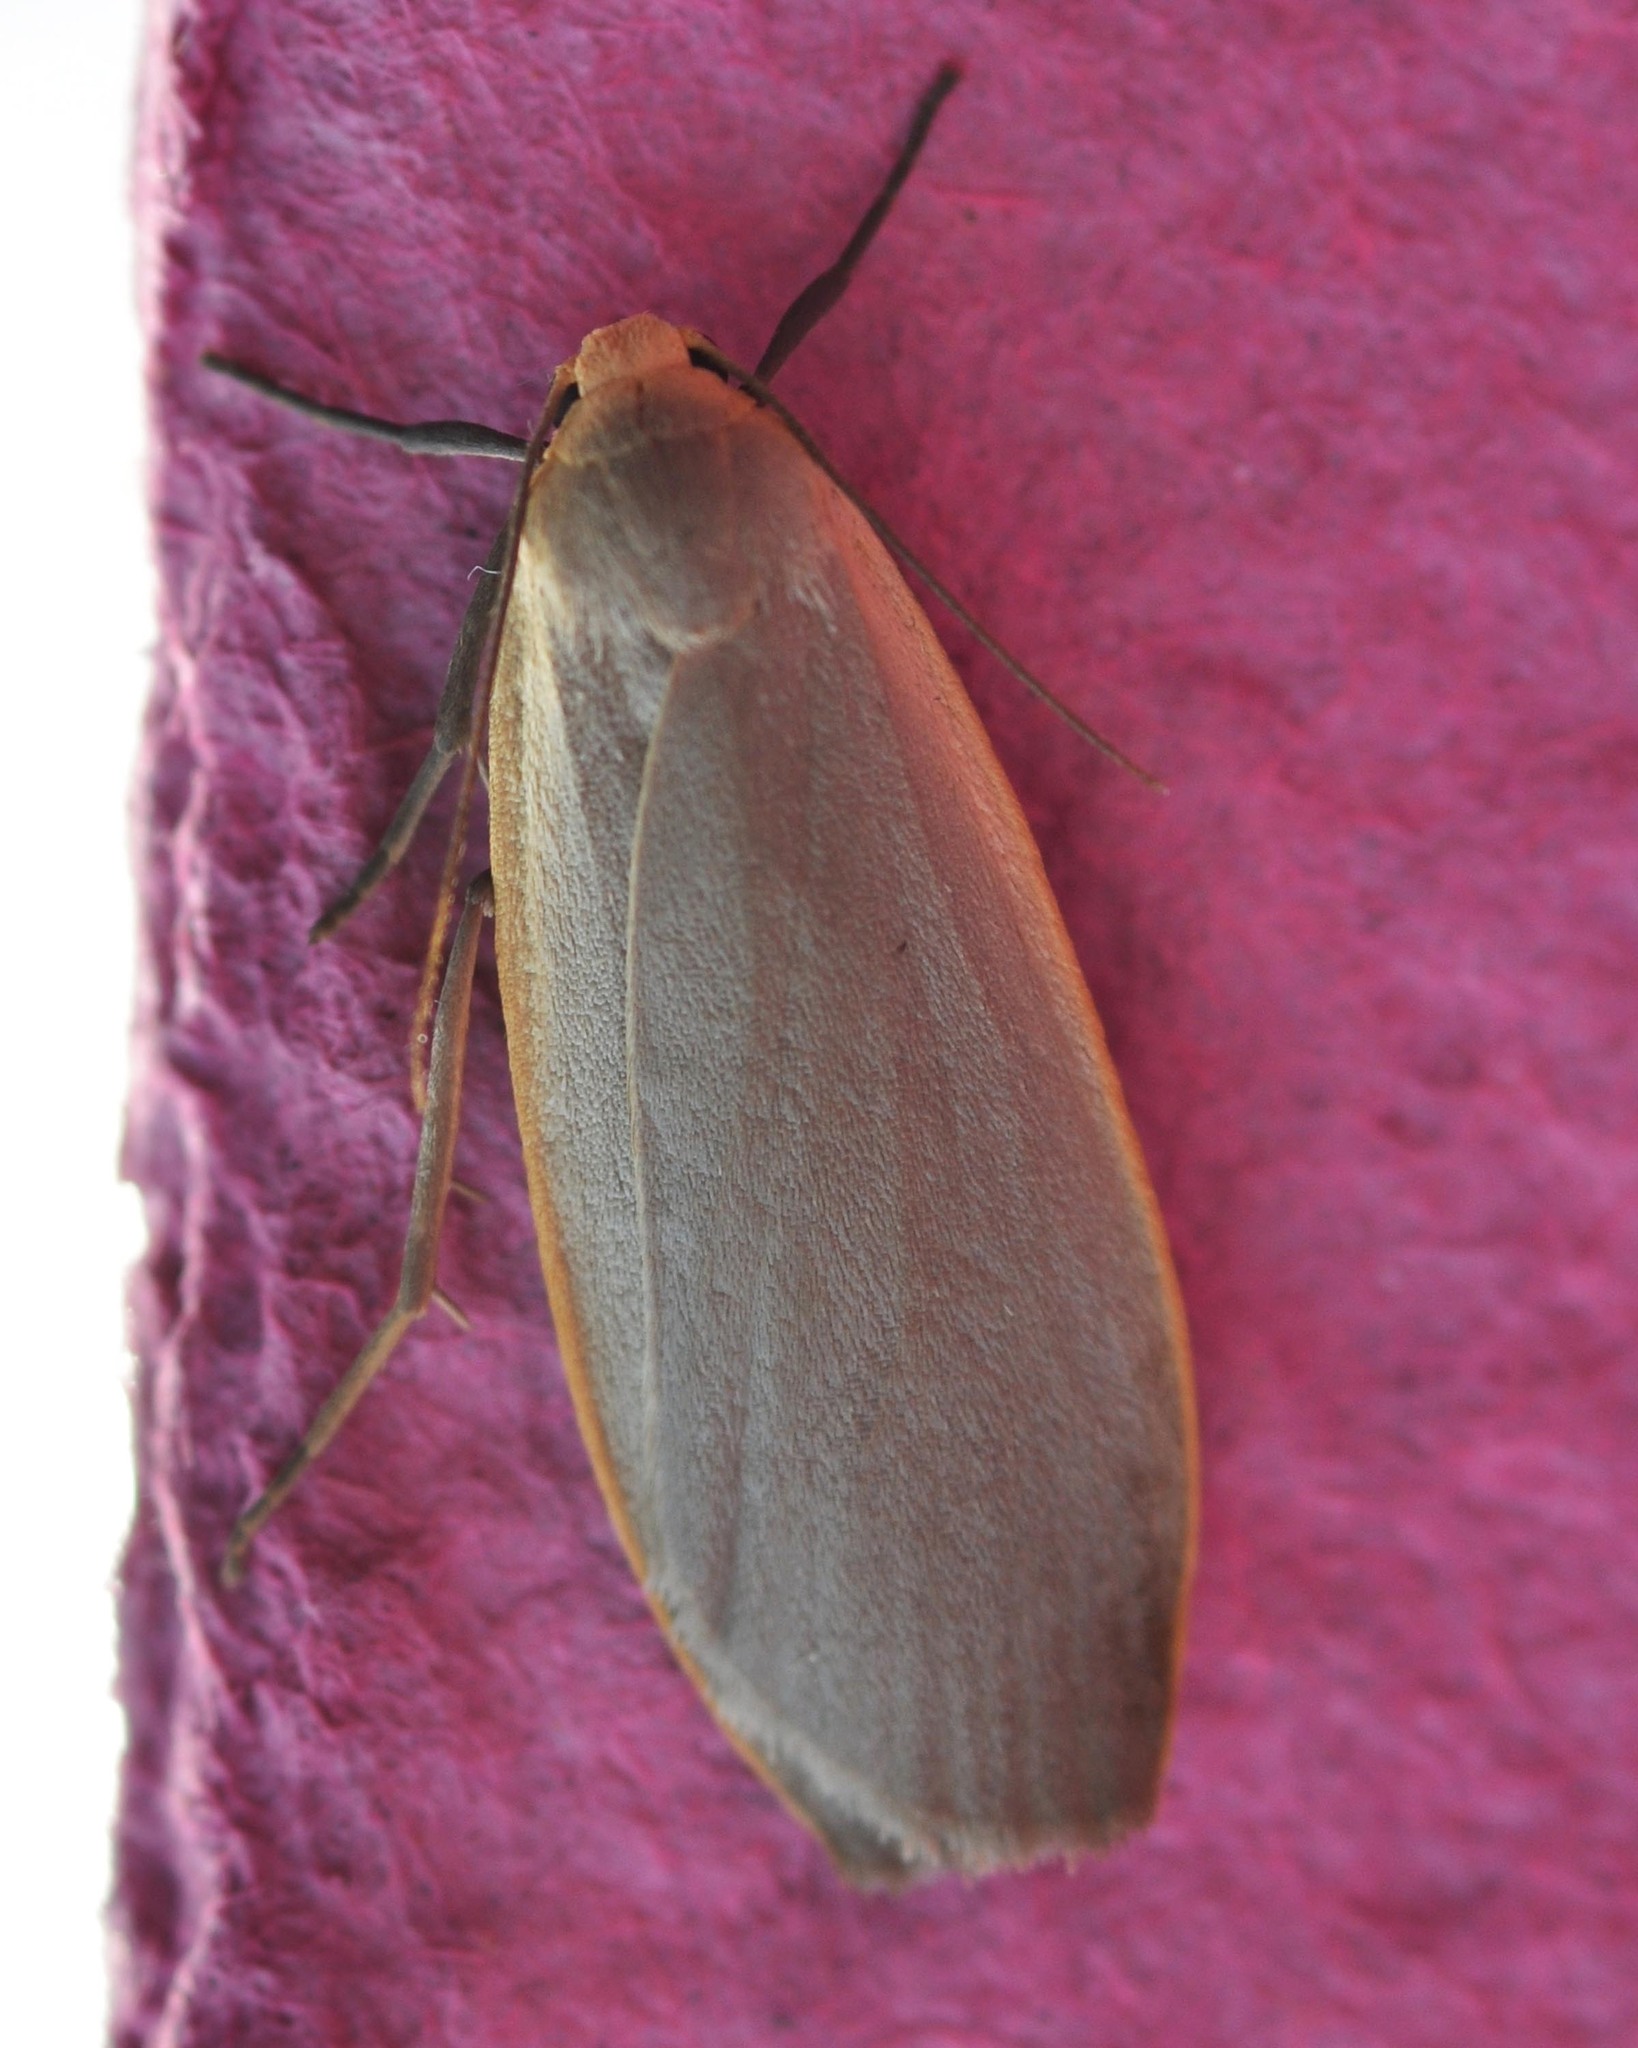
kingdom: Animalia
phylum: Arthropoda
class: Insecta
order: Lepidoptera
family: Erebidae
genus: Collita
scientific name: Collita griseola
